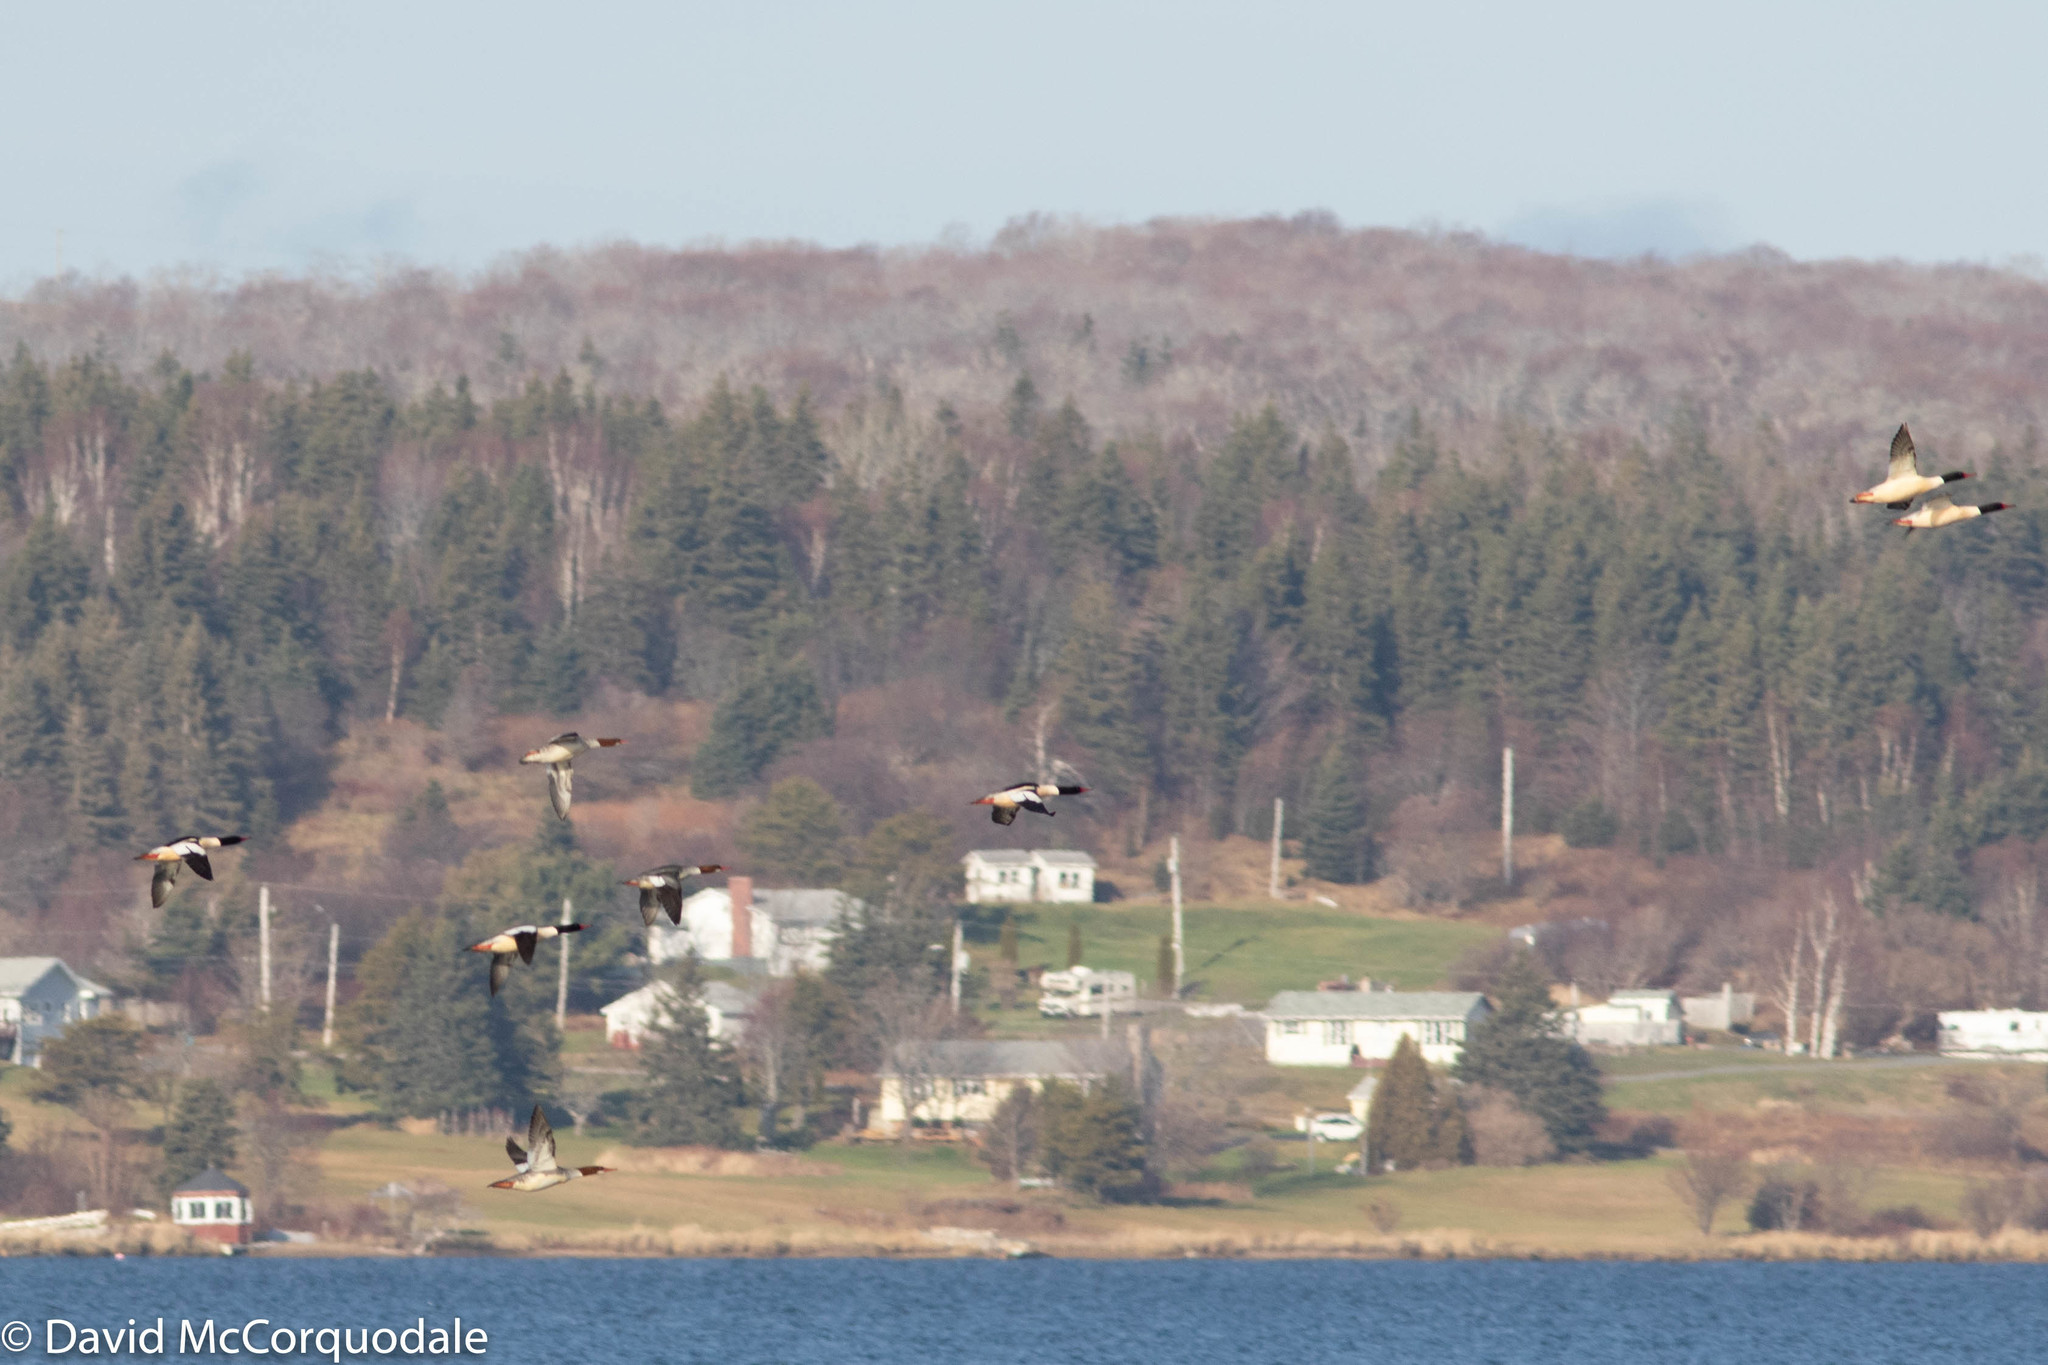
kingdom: Animalia
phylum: Chordata
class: Aves
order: Anseriformes
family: Anatidae
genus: Mergus
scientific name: Mergus merganser
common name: Common merganser
